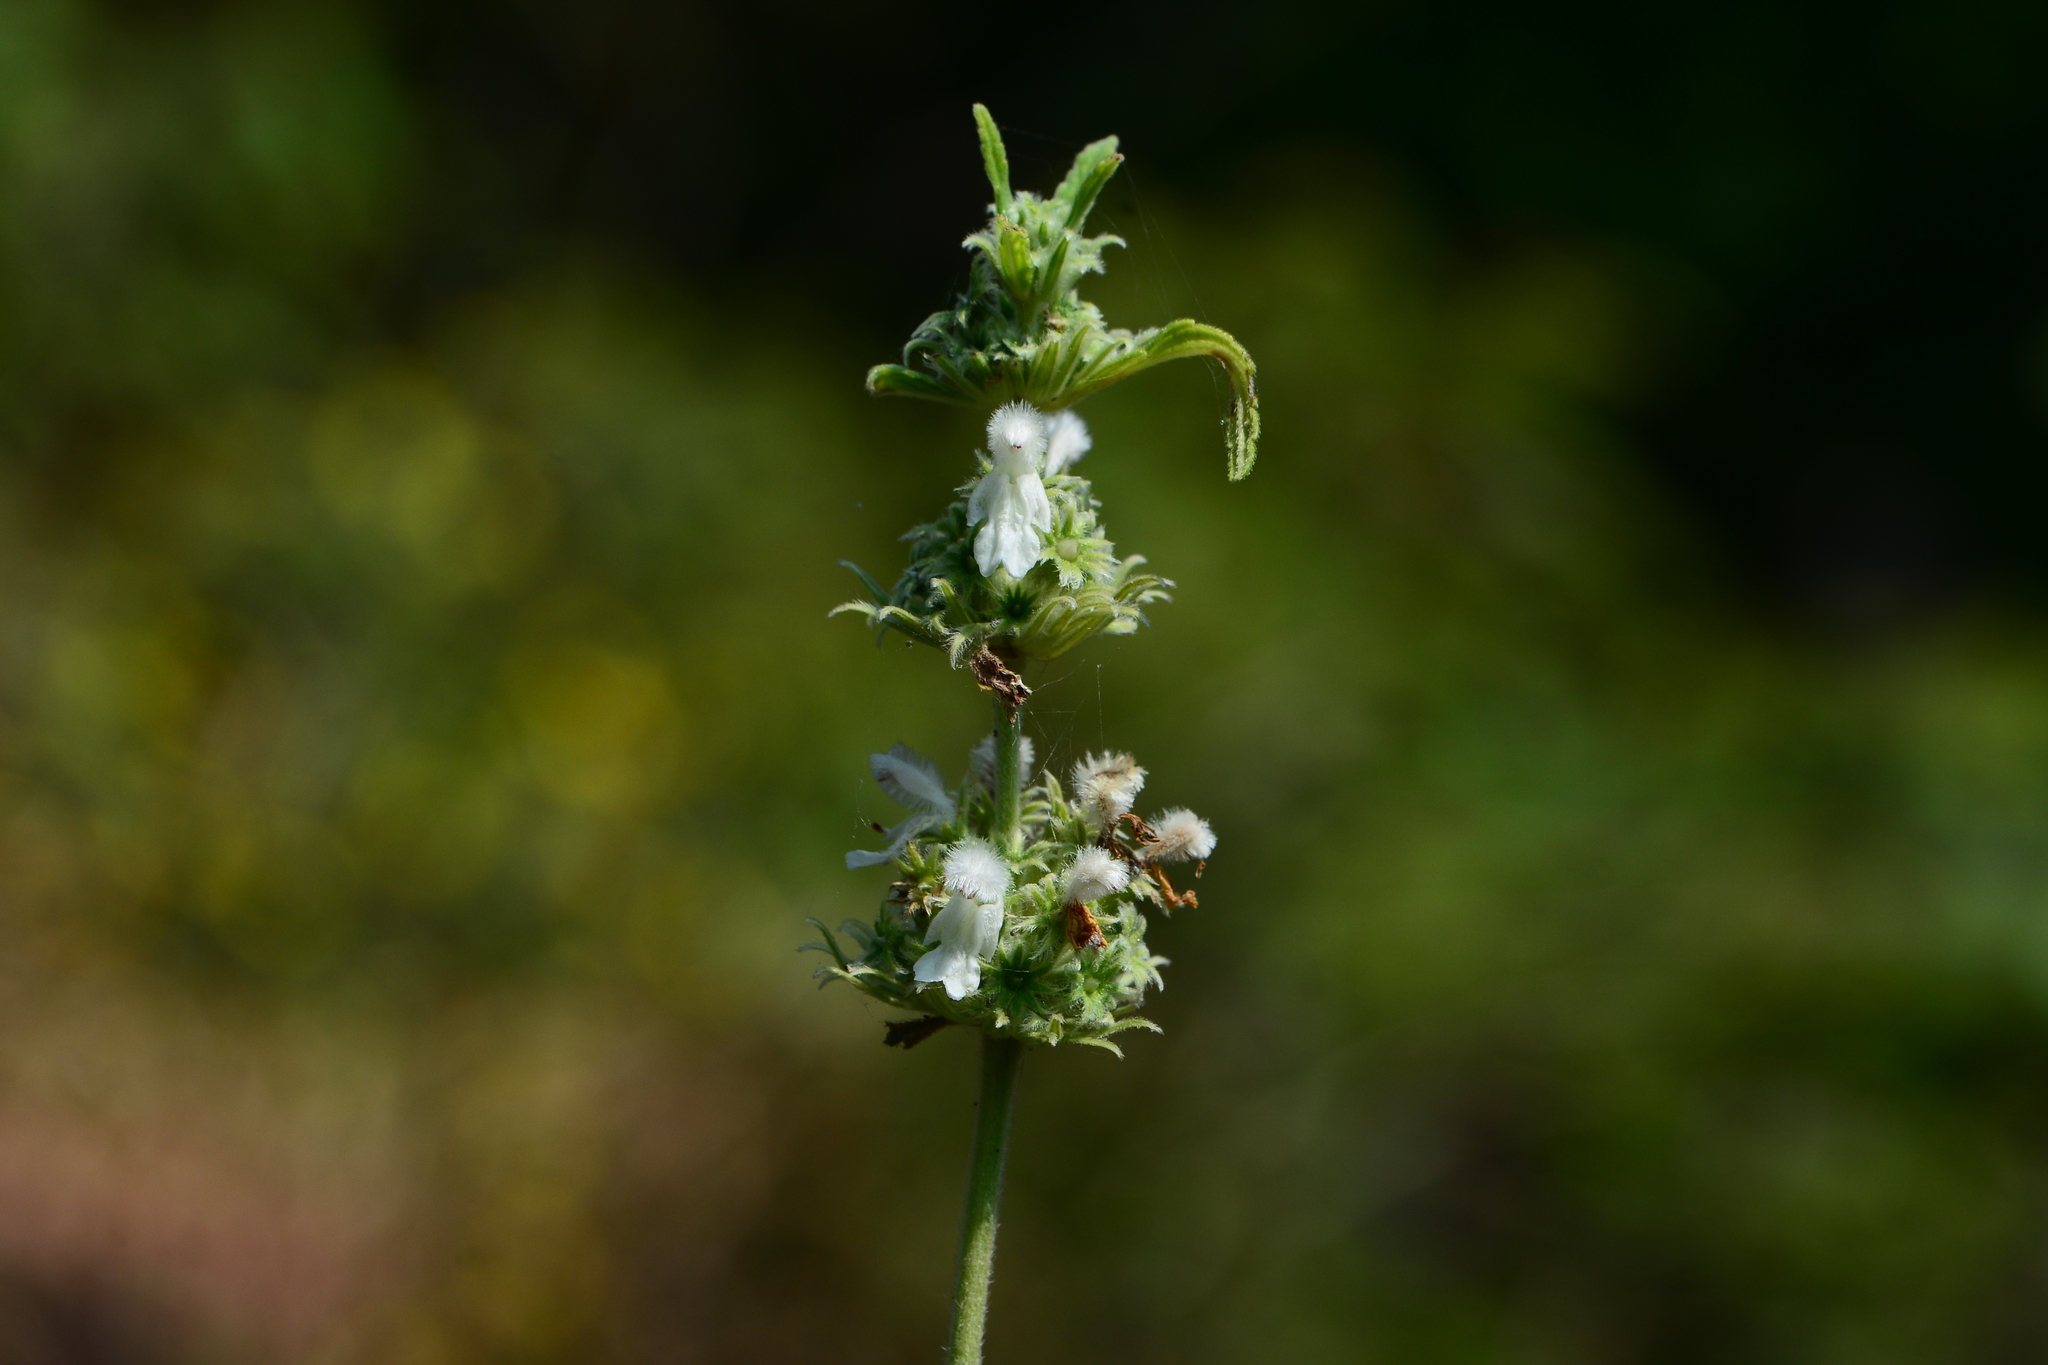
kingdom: Plantae
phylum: Tracheophyta
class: Magnoliopsida
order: Lamiales
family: Lamiaceae
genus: Leucas
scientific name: Leucas stelligera
